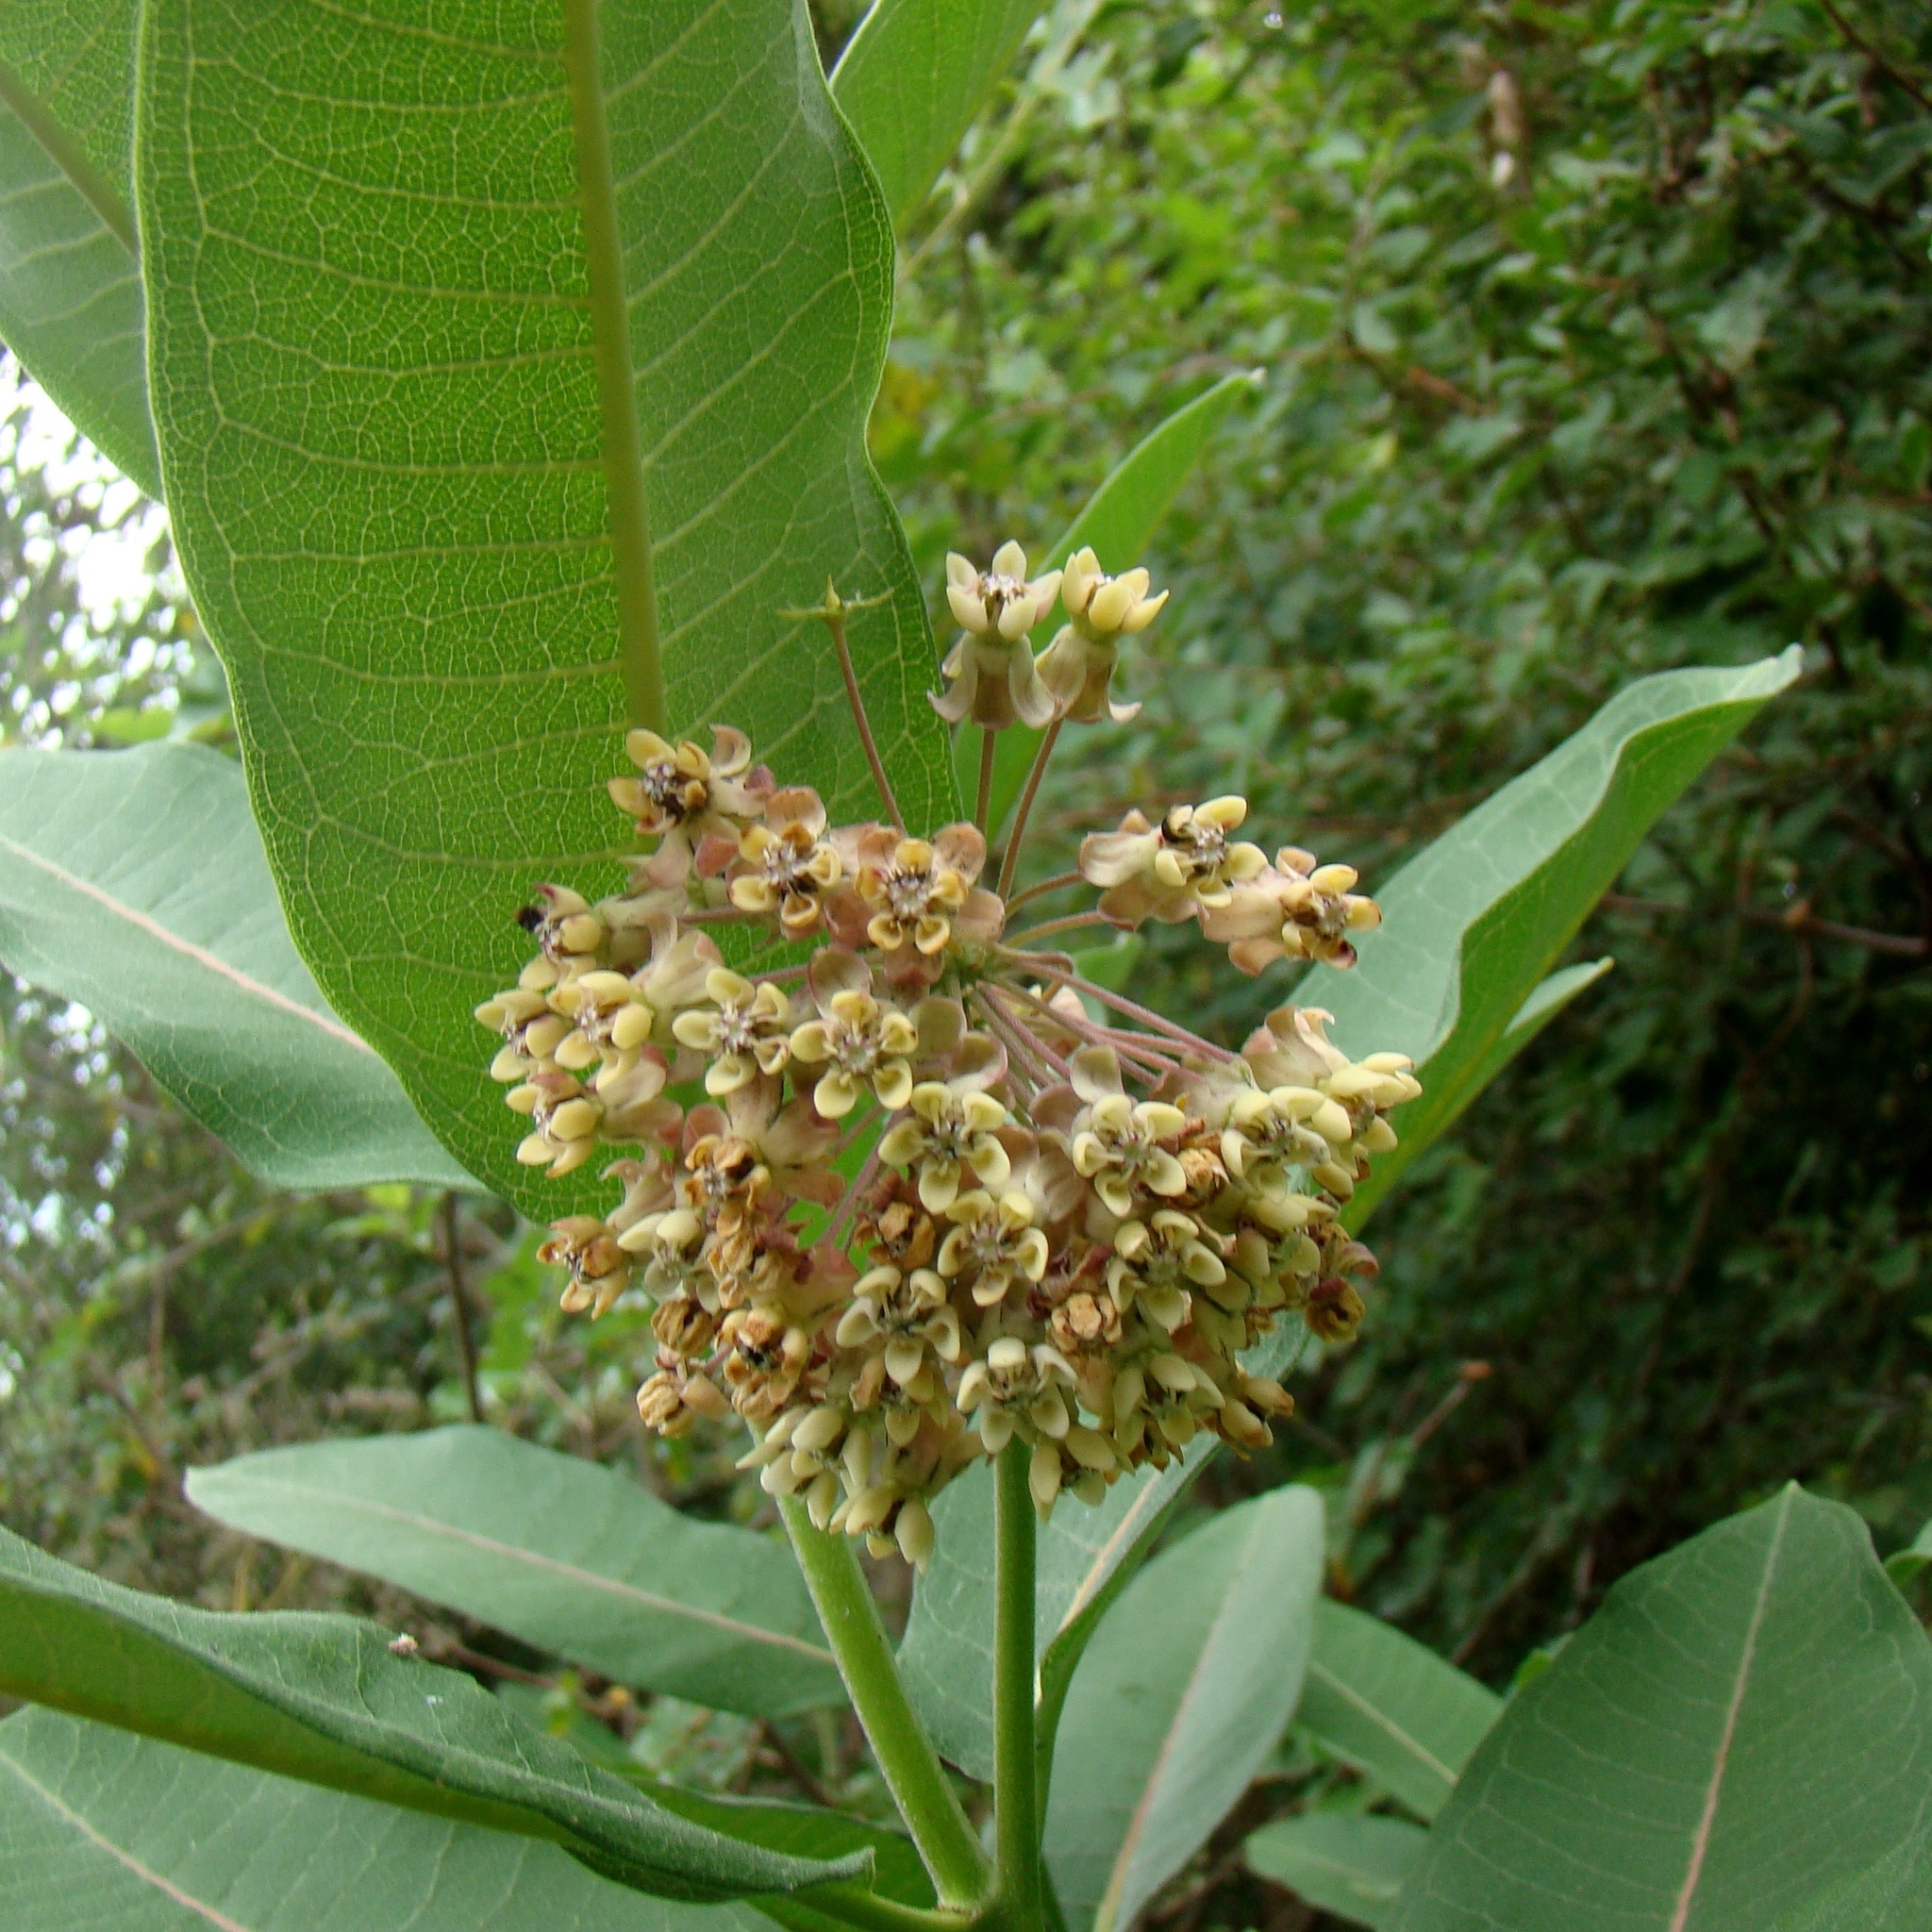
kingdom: Plantae
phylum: Tracheophyta
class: Magnoliopsida
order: Gentianales
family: Apocynaceae
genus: Asclepias
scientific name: Asclepias syriaca
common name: Common milkweed
